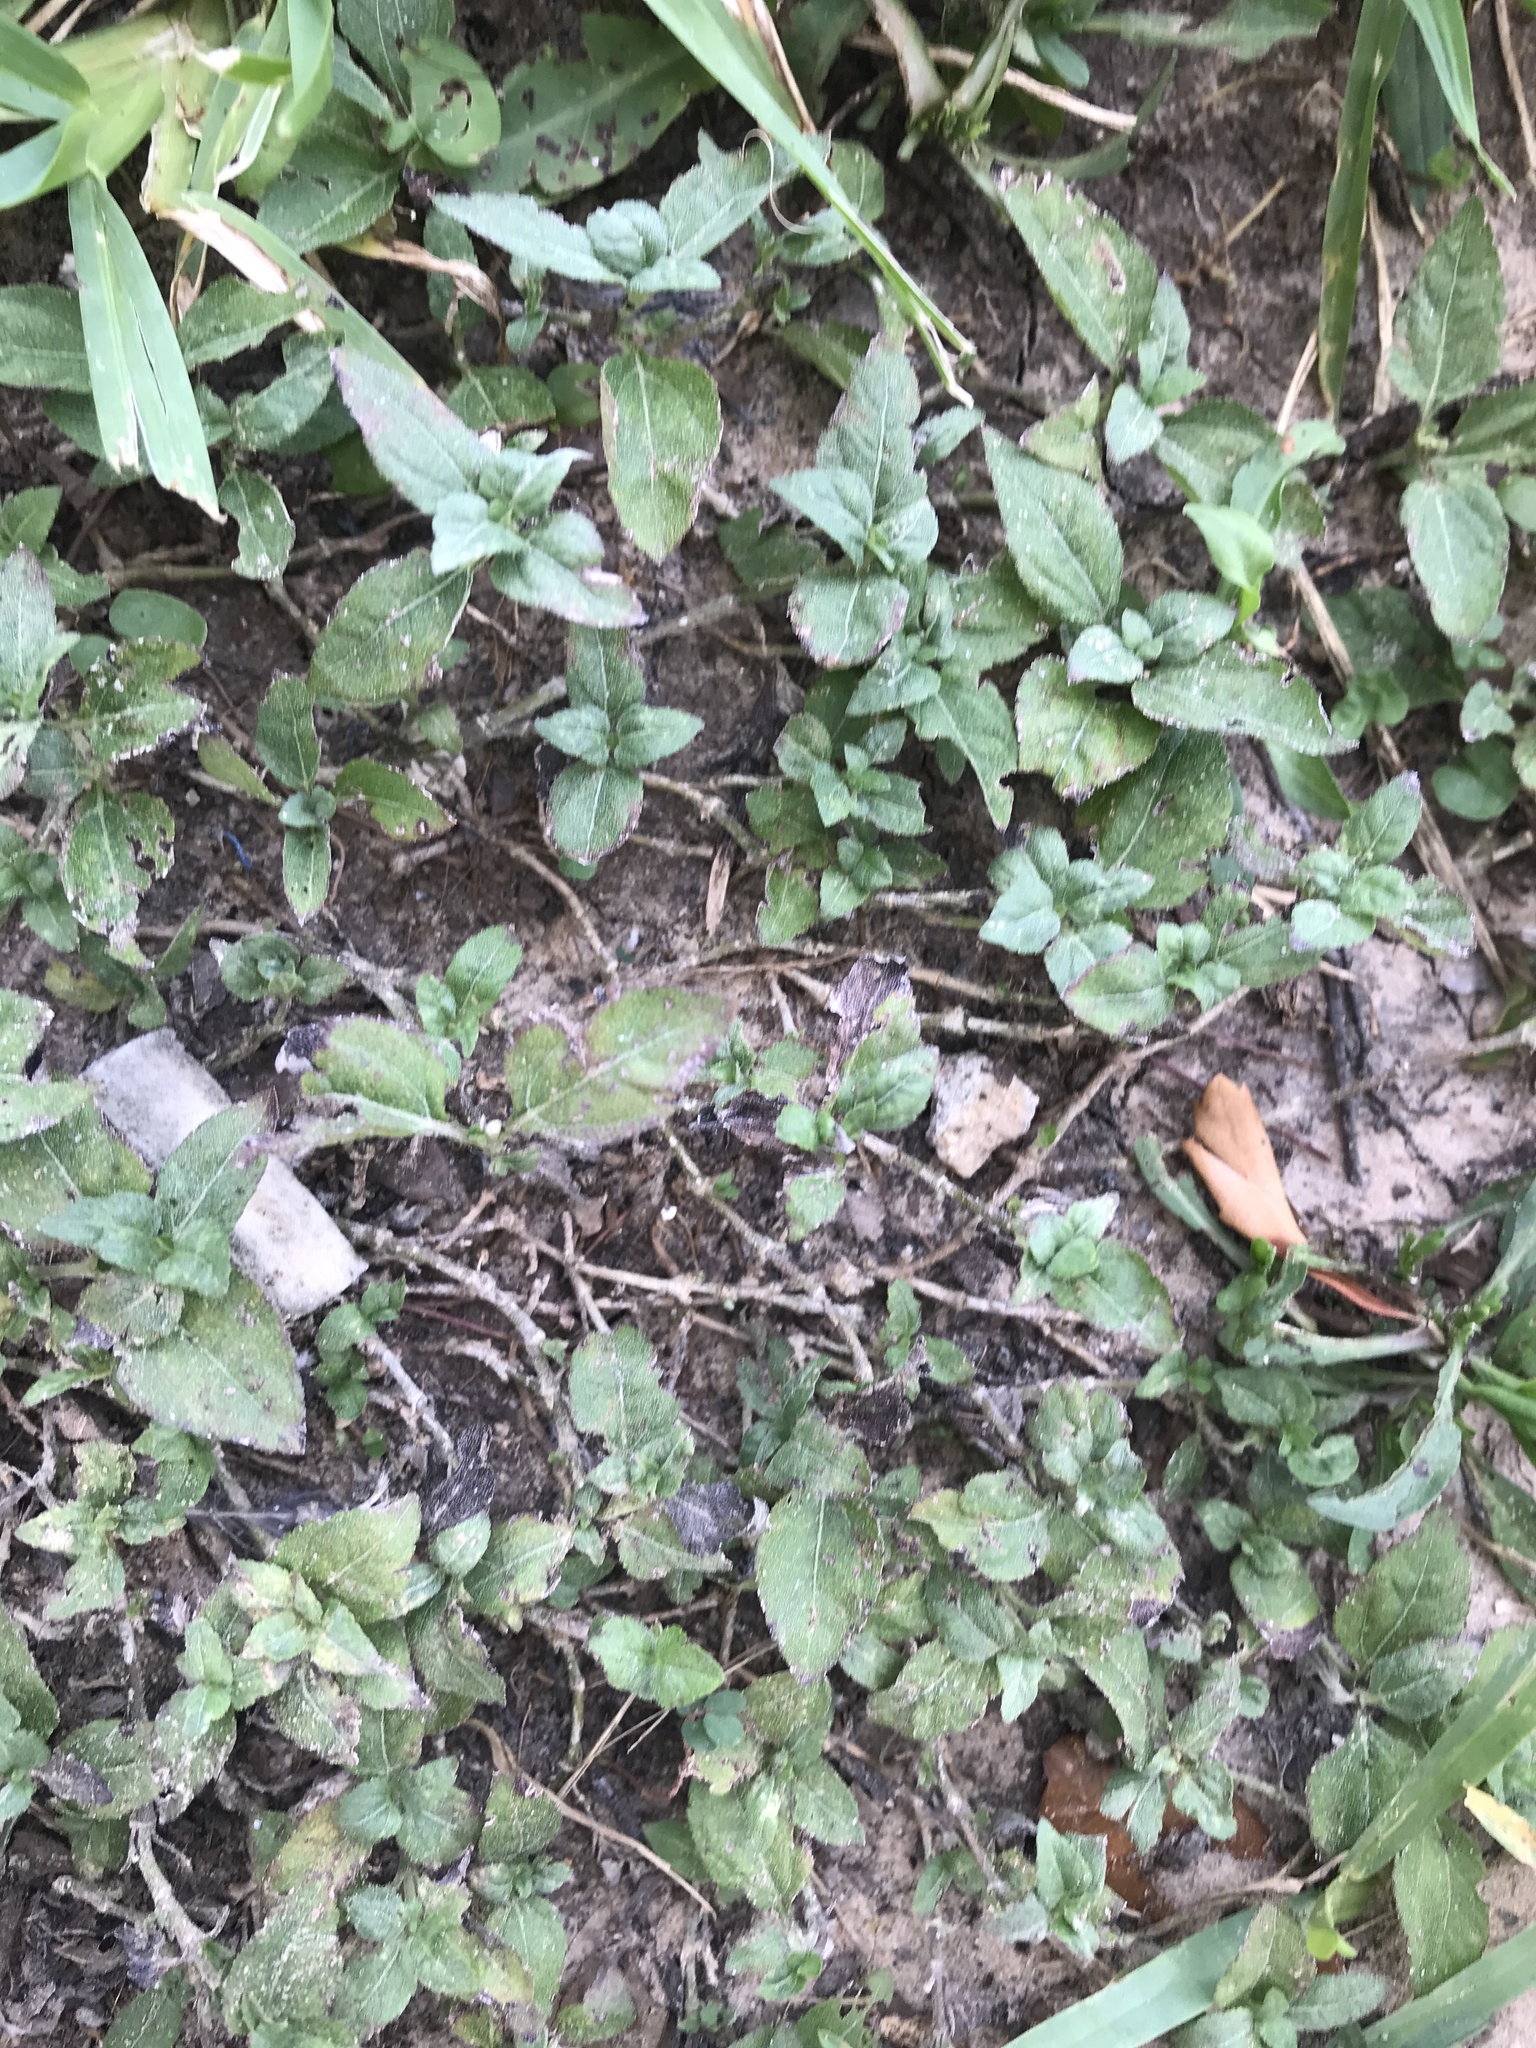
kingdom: Plantae
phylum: Tracheophyta
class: Magnoliopsida
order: Asterales
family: Asteraceae
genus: Calyptocarpus
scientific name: Calyptocarpus vialis
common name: Straggler daisy
